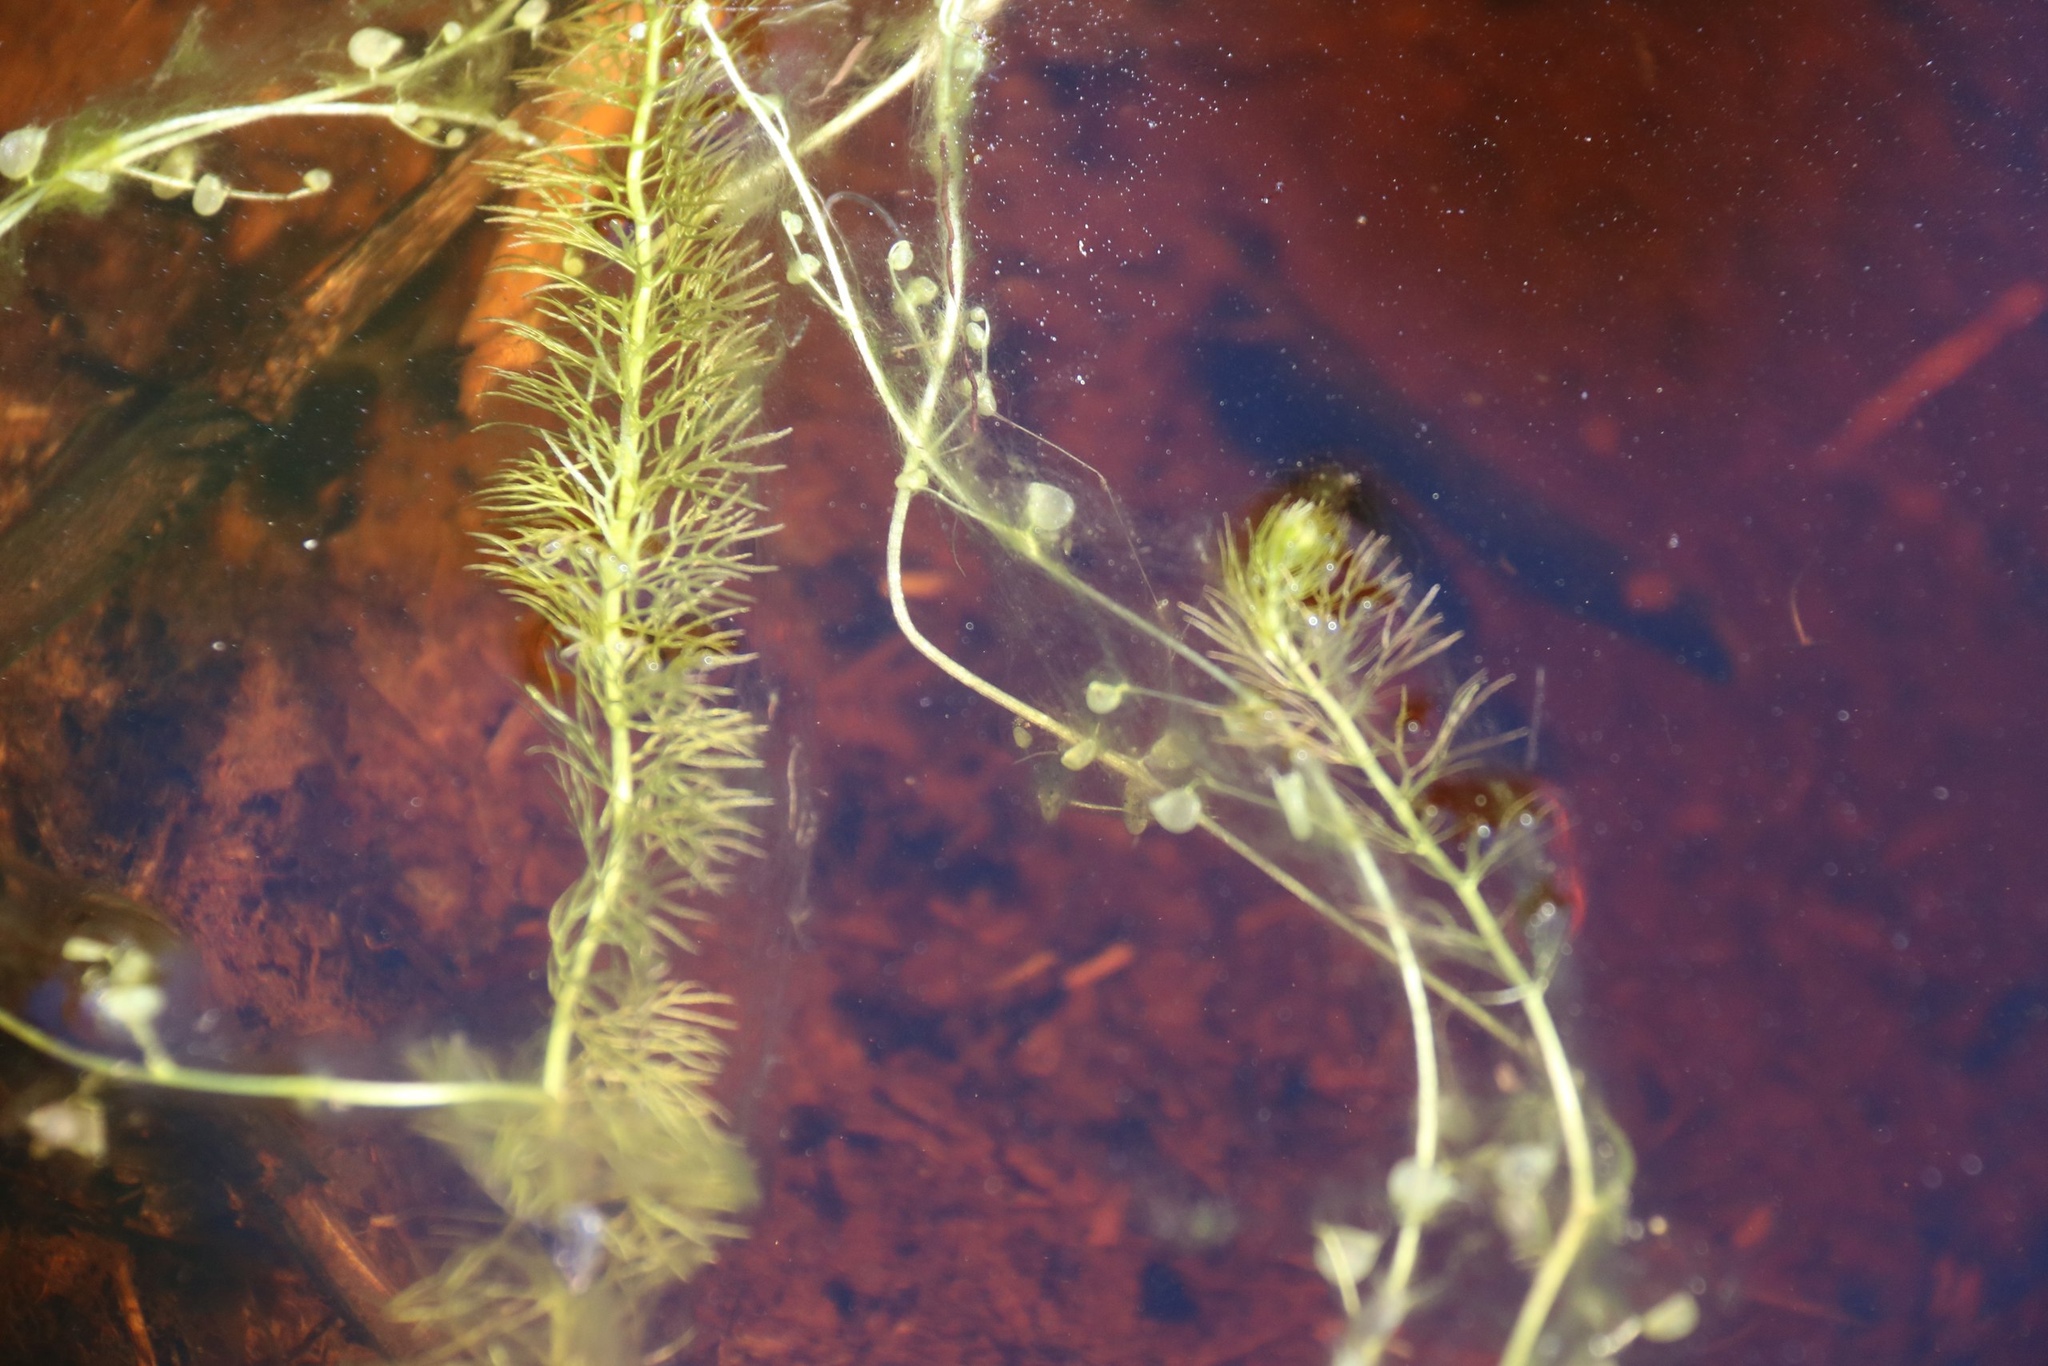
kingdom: Plantae
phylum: Tracheophyta
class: Magnoliopsida
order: Lamiales
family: Lentibulariaceae
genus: Utricularia
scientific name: Utricularia intermedia
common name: Intermediate bladderwort
